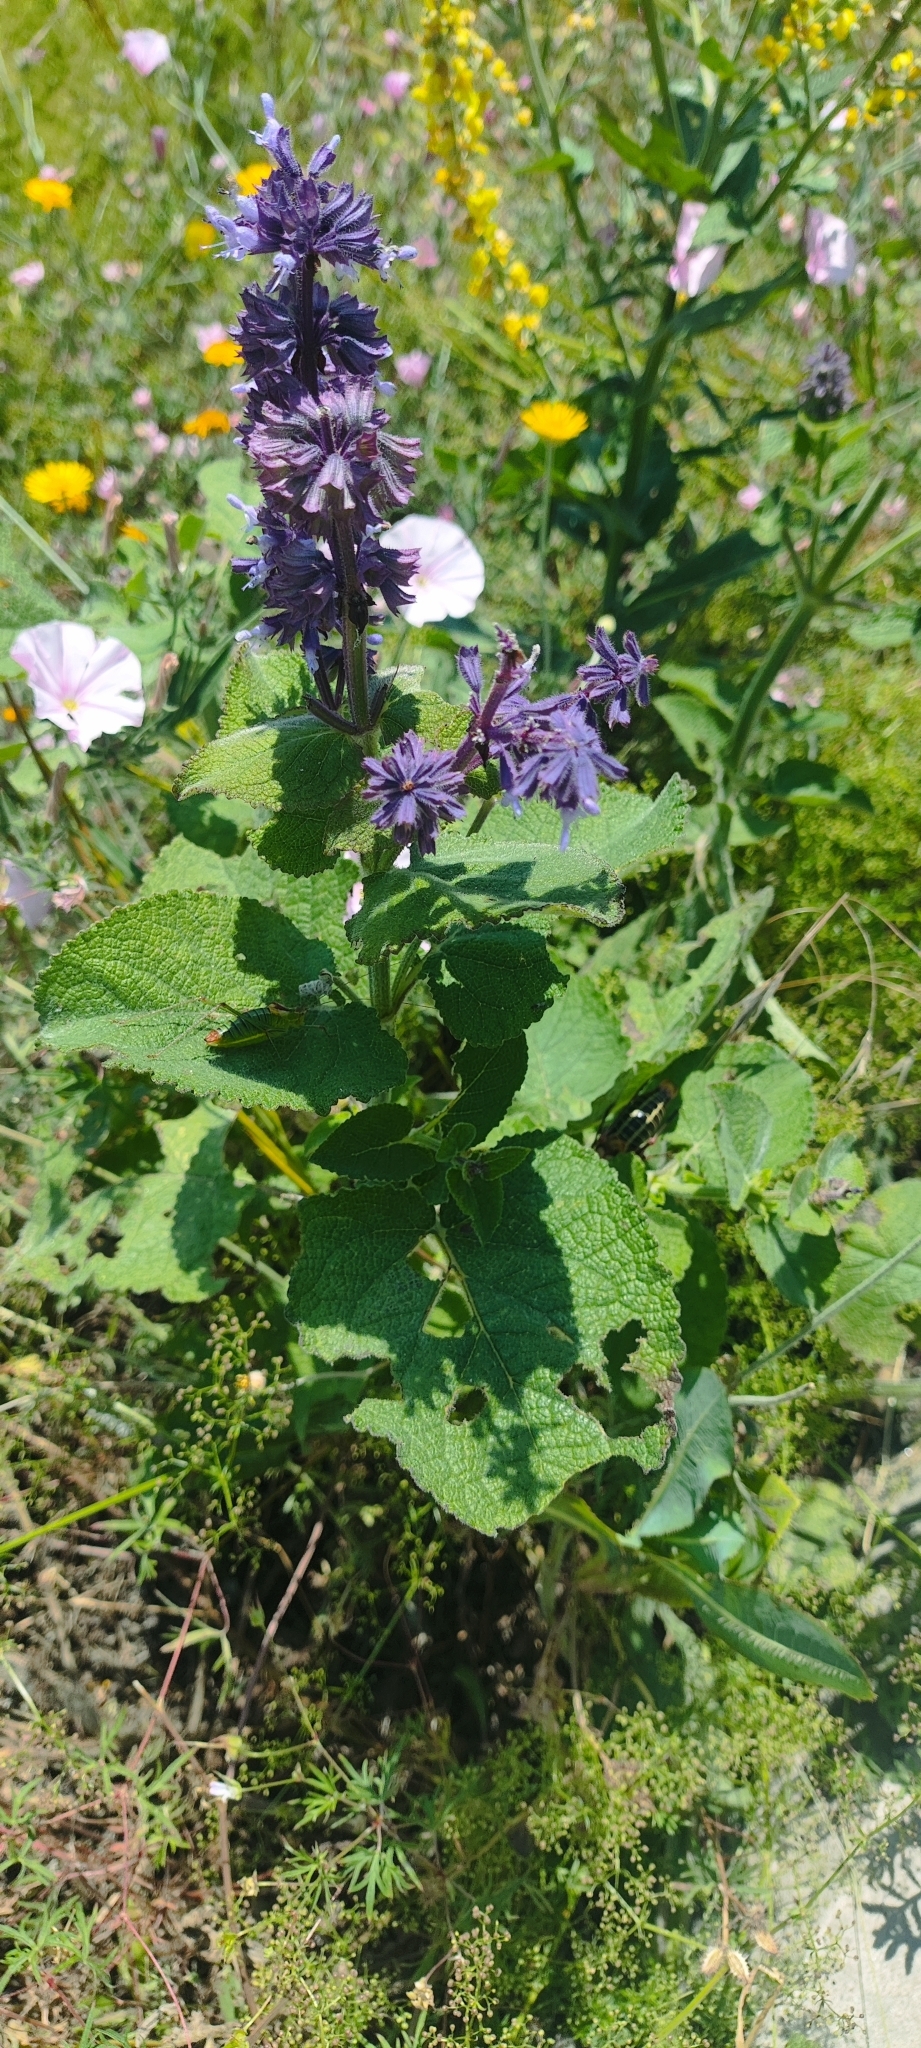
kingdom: Plantae
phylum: Tracheophyta
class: Magnoliopsida
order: Lamiales
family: Lamiaceae
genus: Salvia
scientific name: Salvia verticillata
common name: Whorled clary
